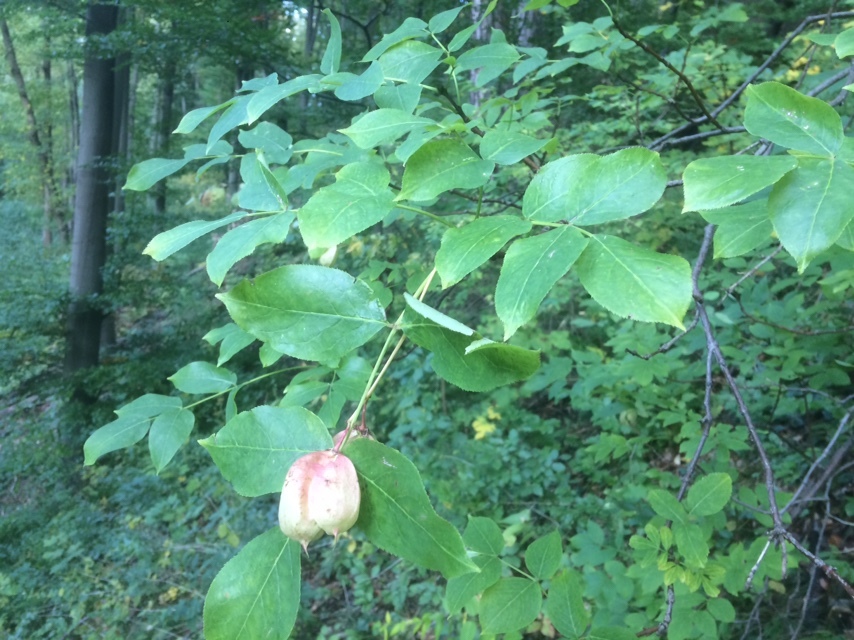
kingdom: Plantae
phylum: Tracheophyta
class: Magnoliopsida
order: Crossosomatales
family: Staphyleaceae
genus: Staphylea
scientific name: Staphylea pinnata
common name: Bladdernut
